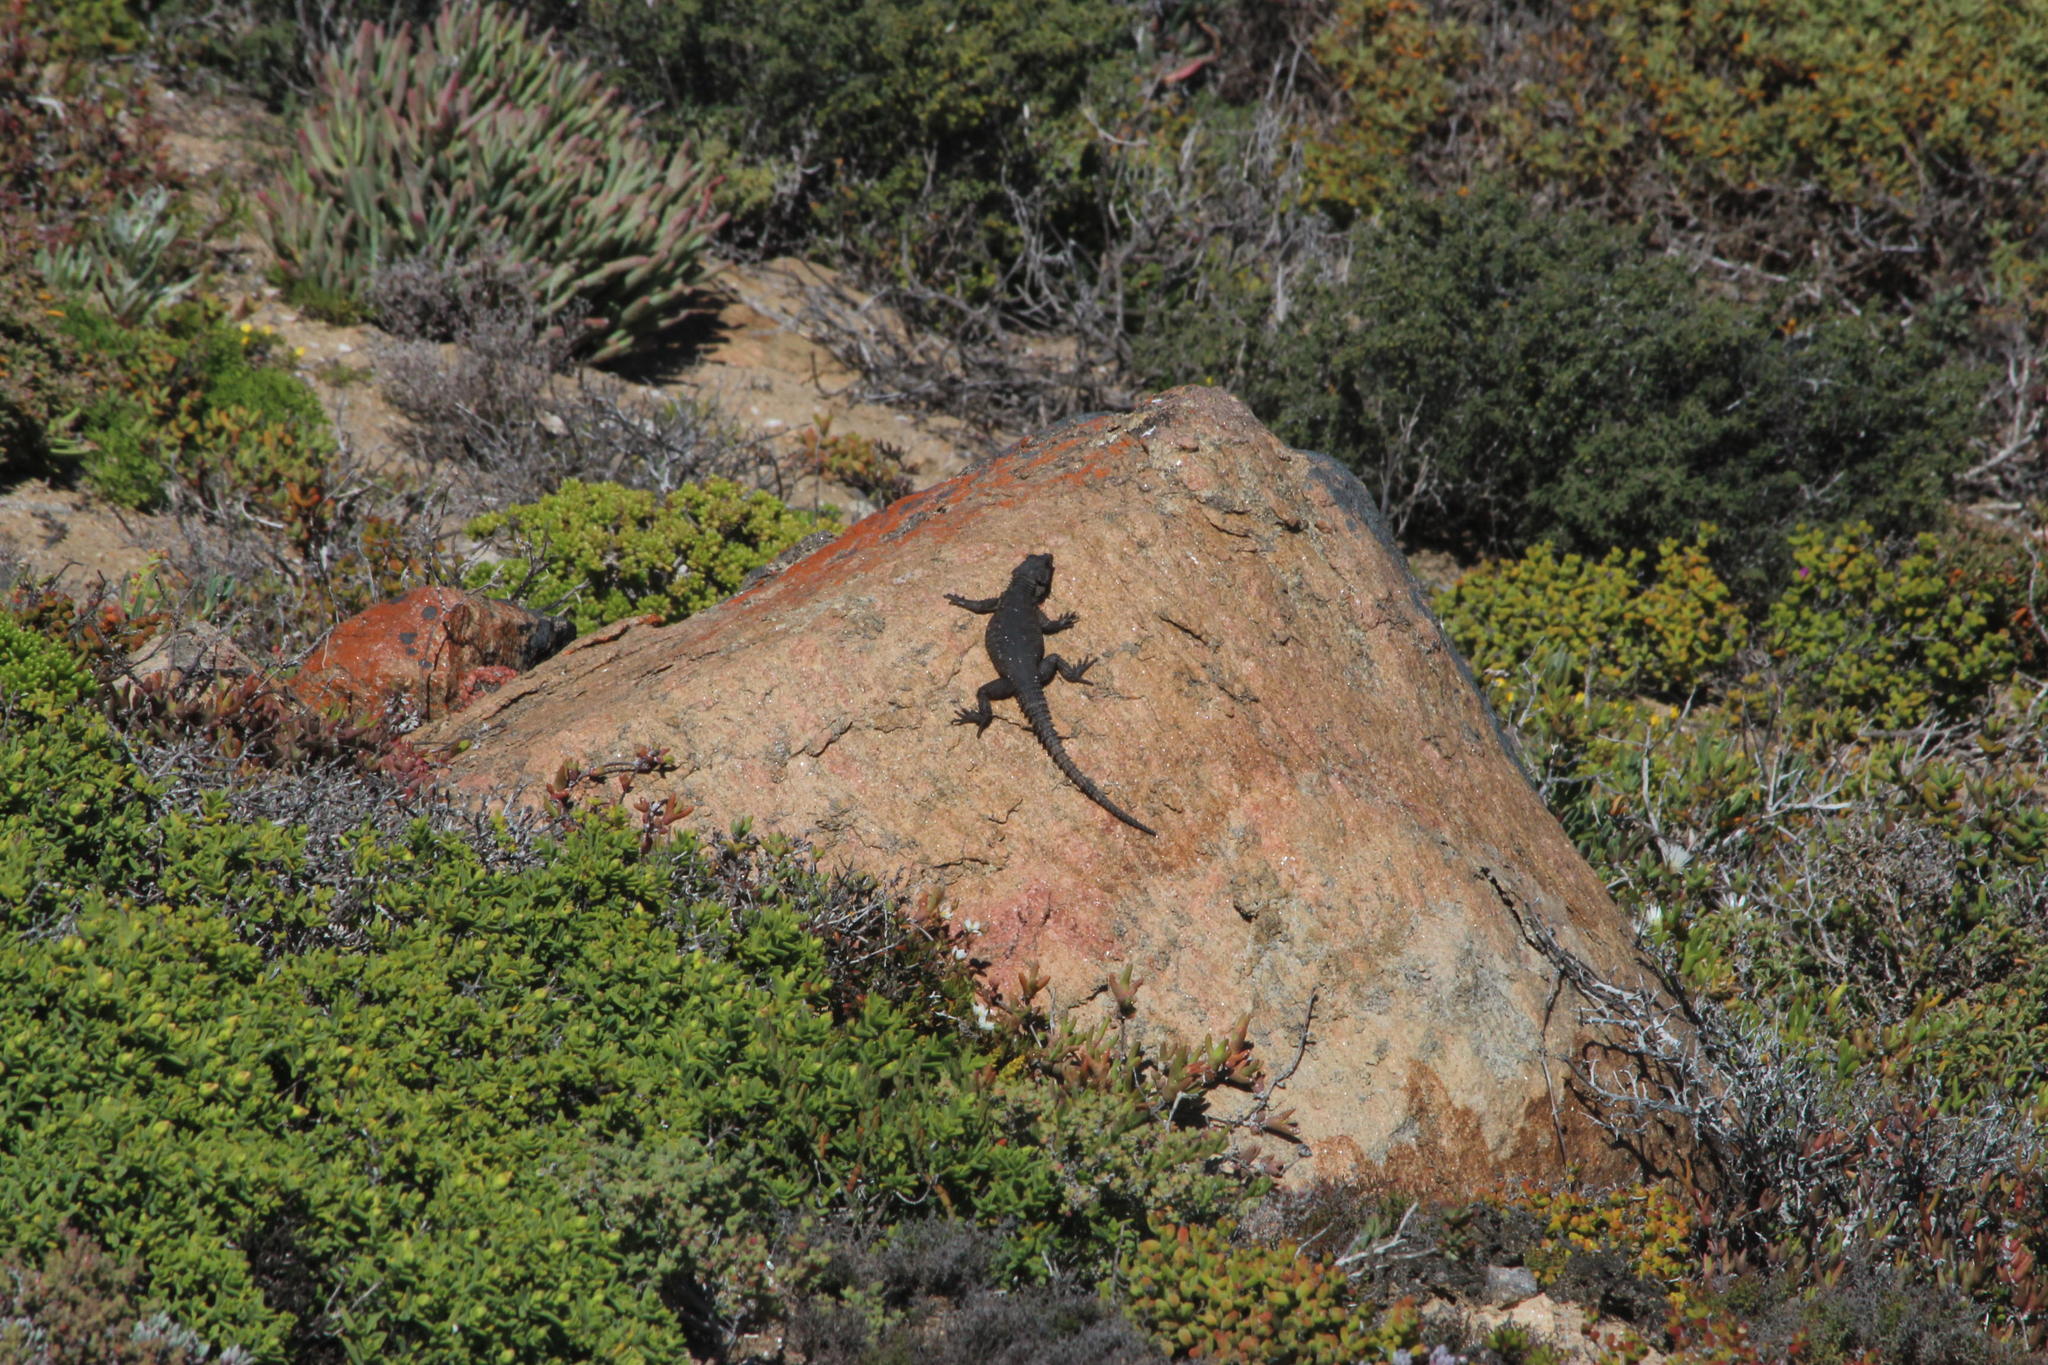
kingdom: Animalia
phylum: Chordata
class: Squamata
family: Cordylidae
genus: Karusasaurus
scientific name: Karusasaurus polyzonus
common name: Karoo girdled lizard
